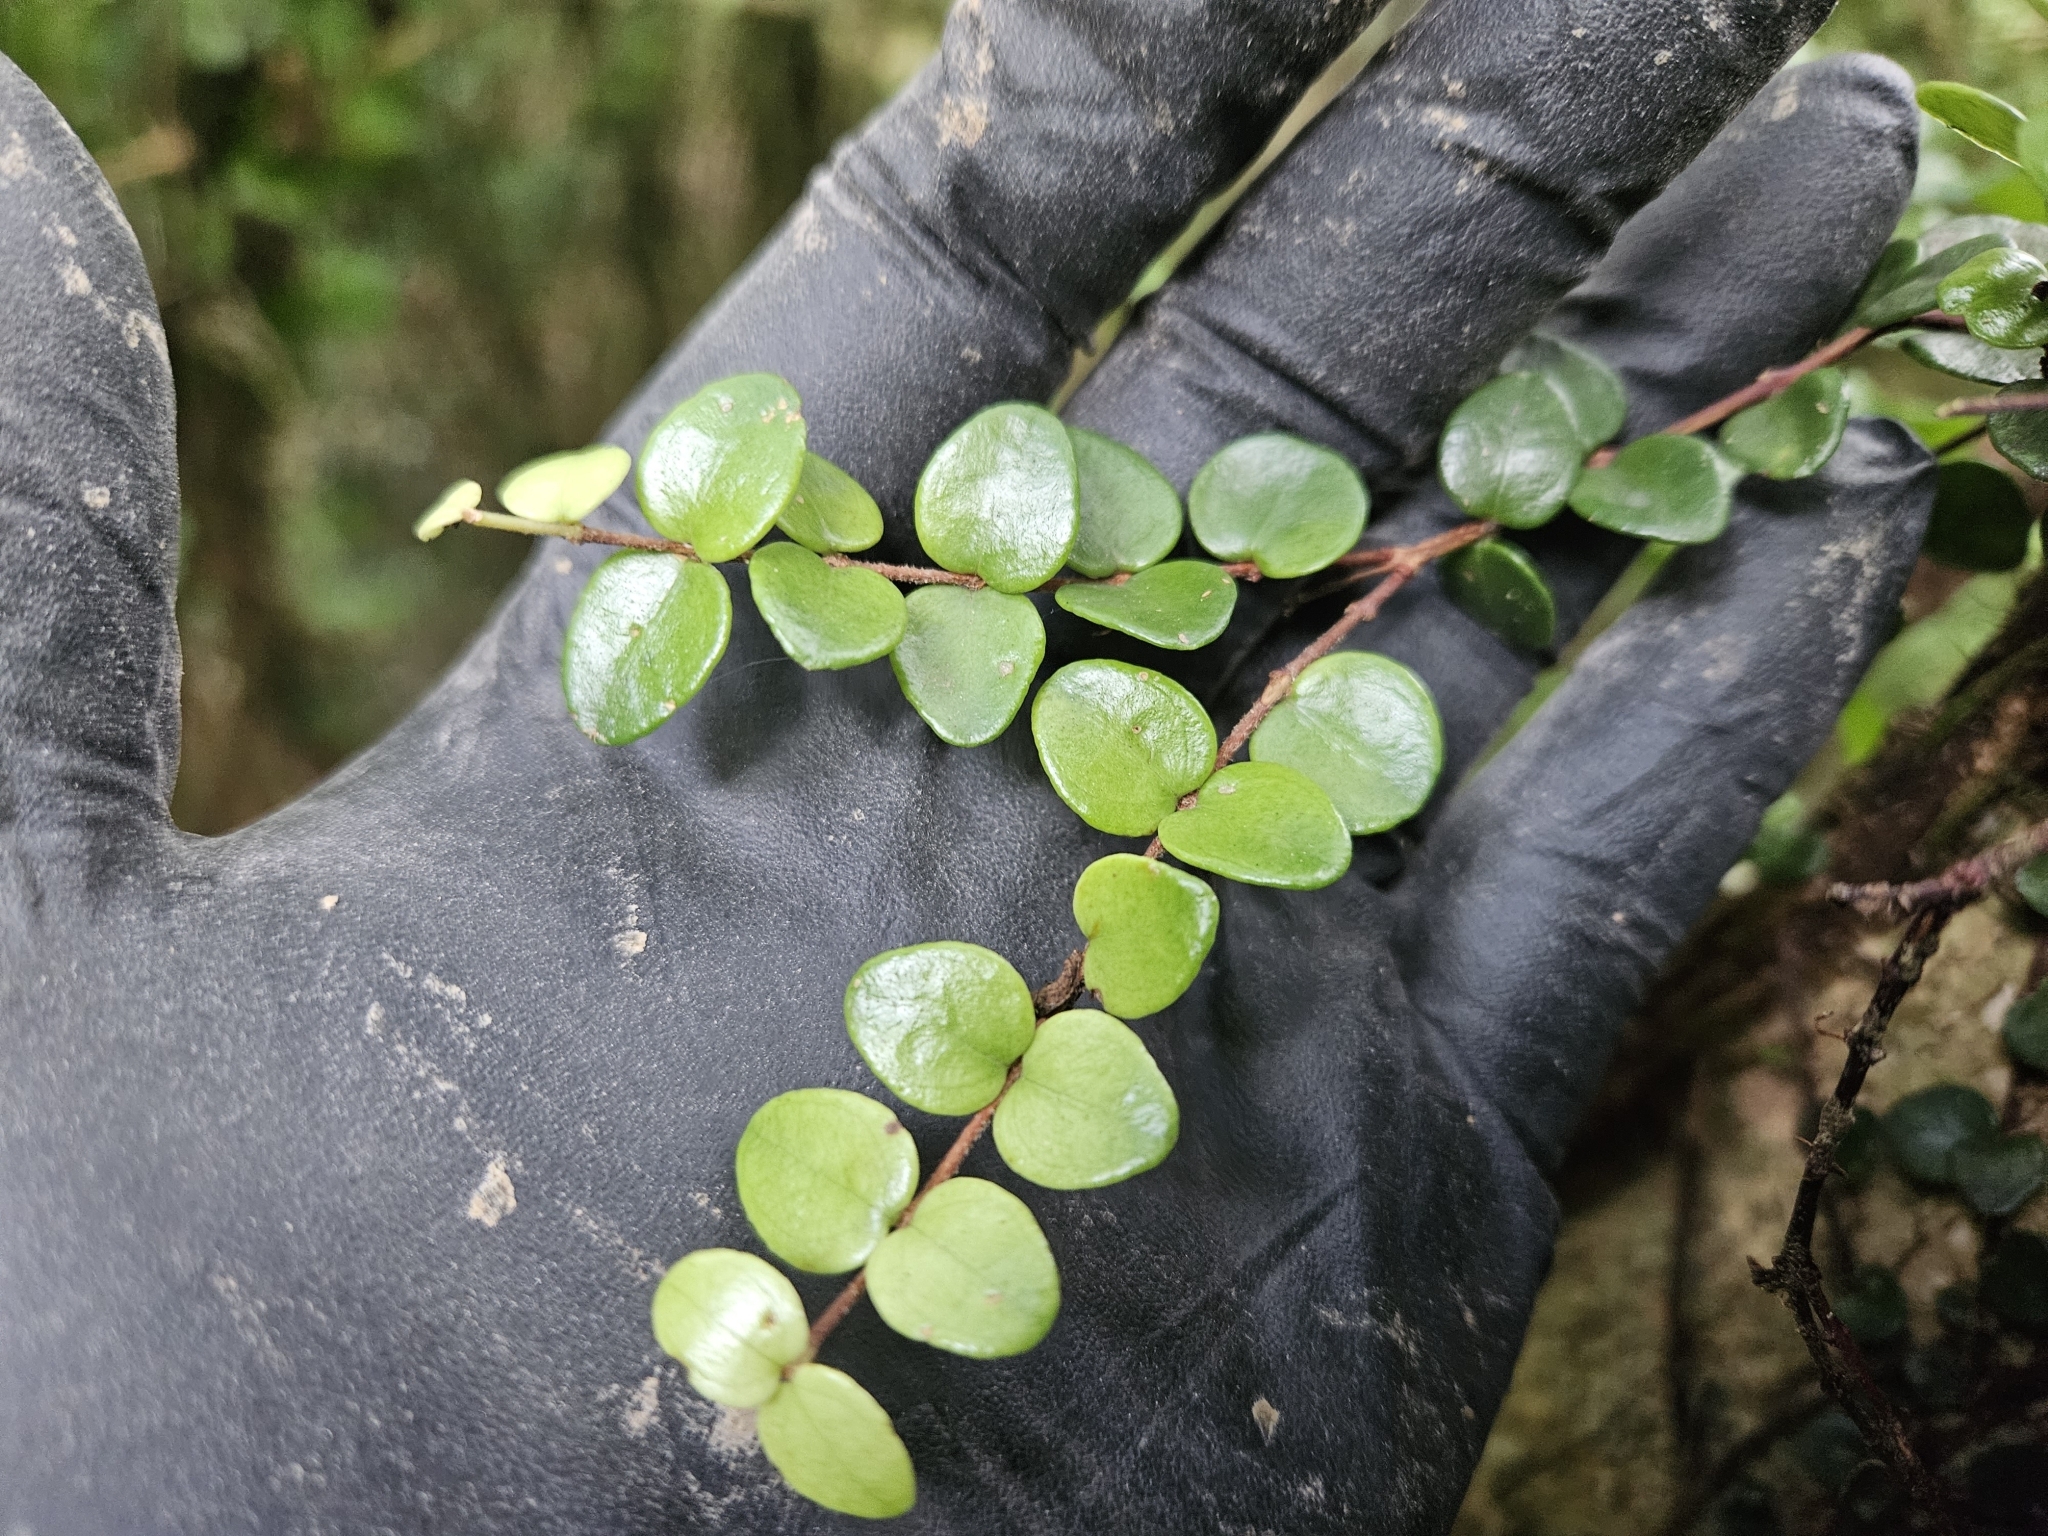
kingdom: Plantae
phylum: Tracheophyta
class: Magnoliopsida
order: Myrtales
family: Myrtaceae
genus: Metrosideros
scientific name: Metrosideros perforata
